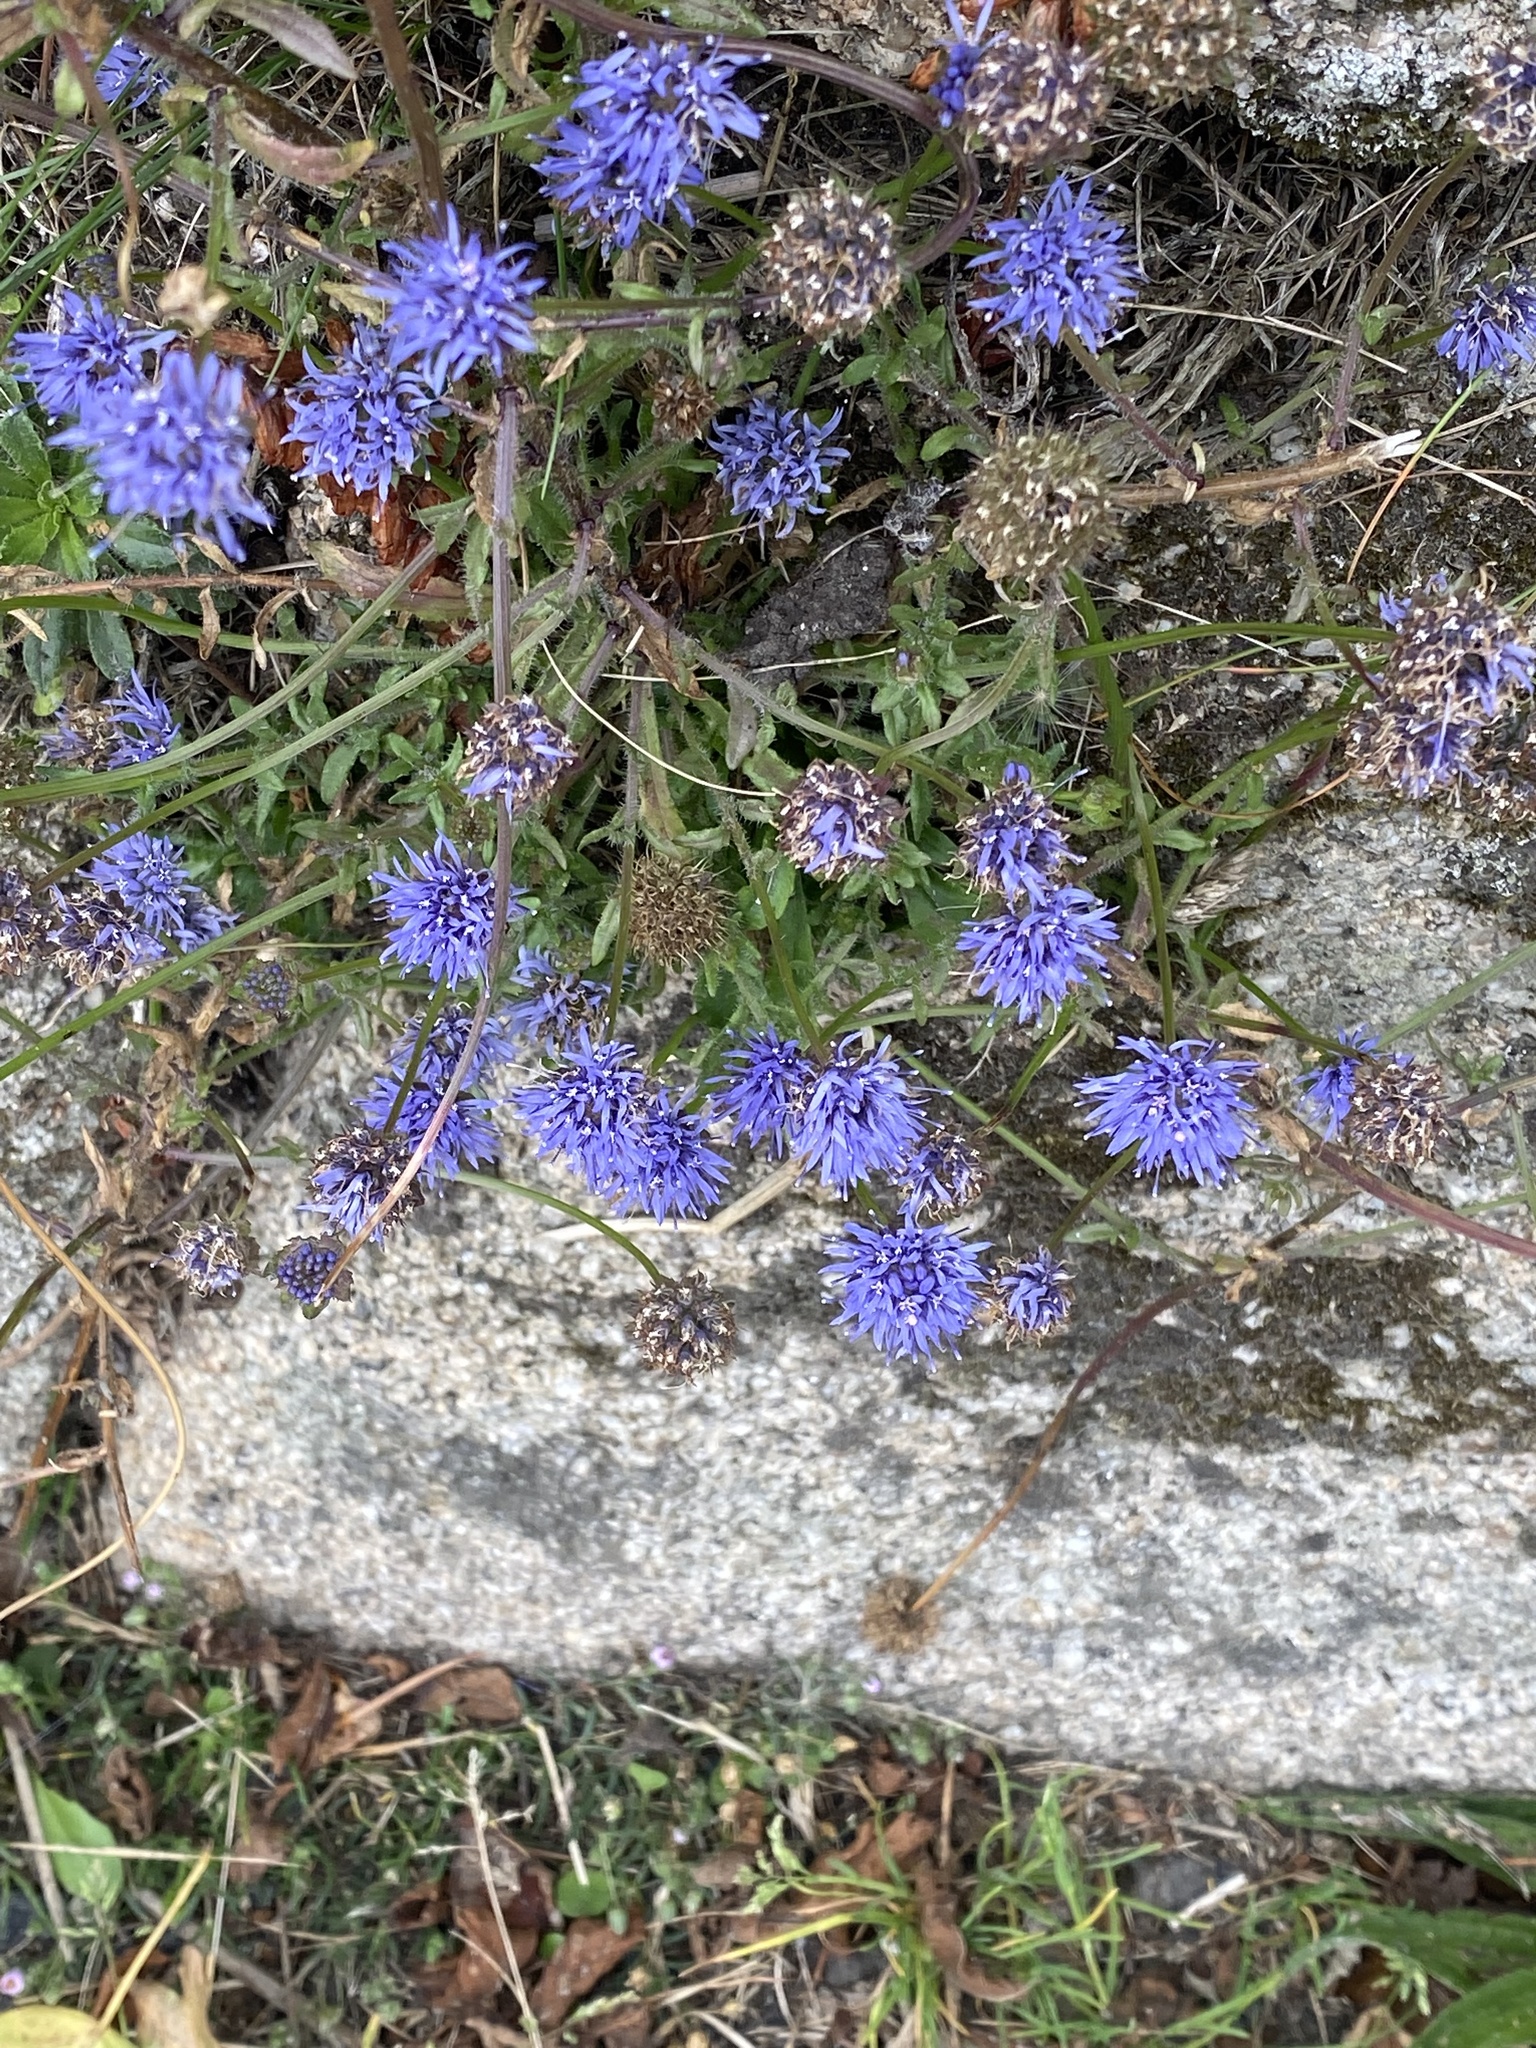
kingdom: Plantae
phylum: Tracheophyta
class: Magnoliopsida
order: Asterales
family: Campanulaceae
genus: Jasione
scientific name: Jasione montana
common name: Sheep's-bit
